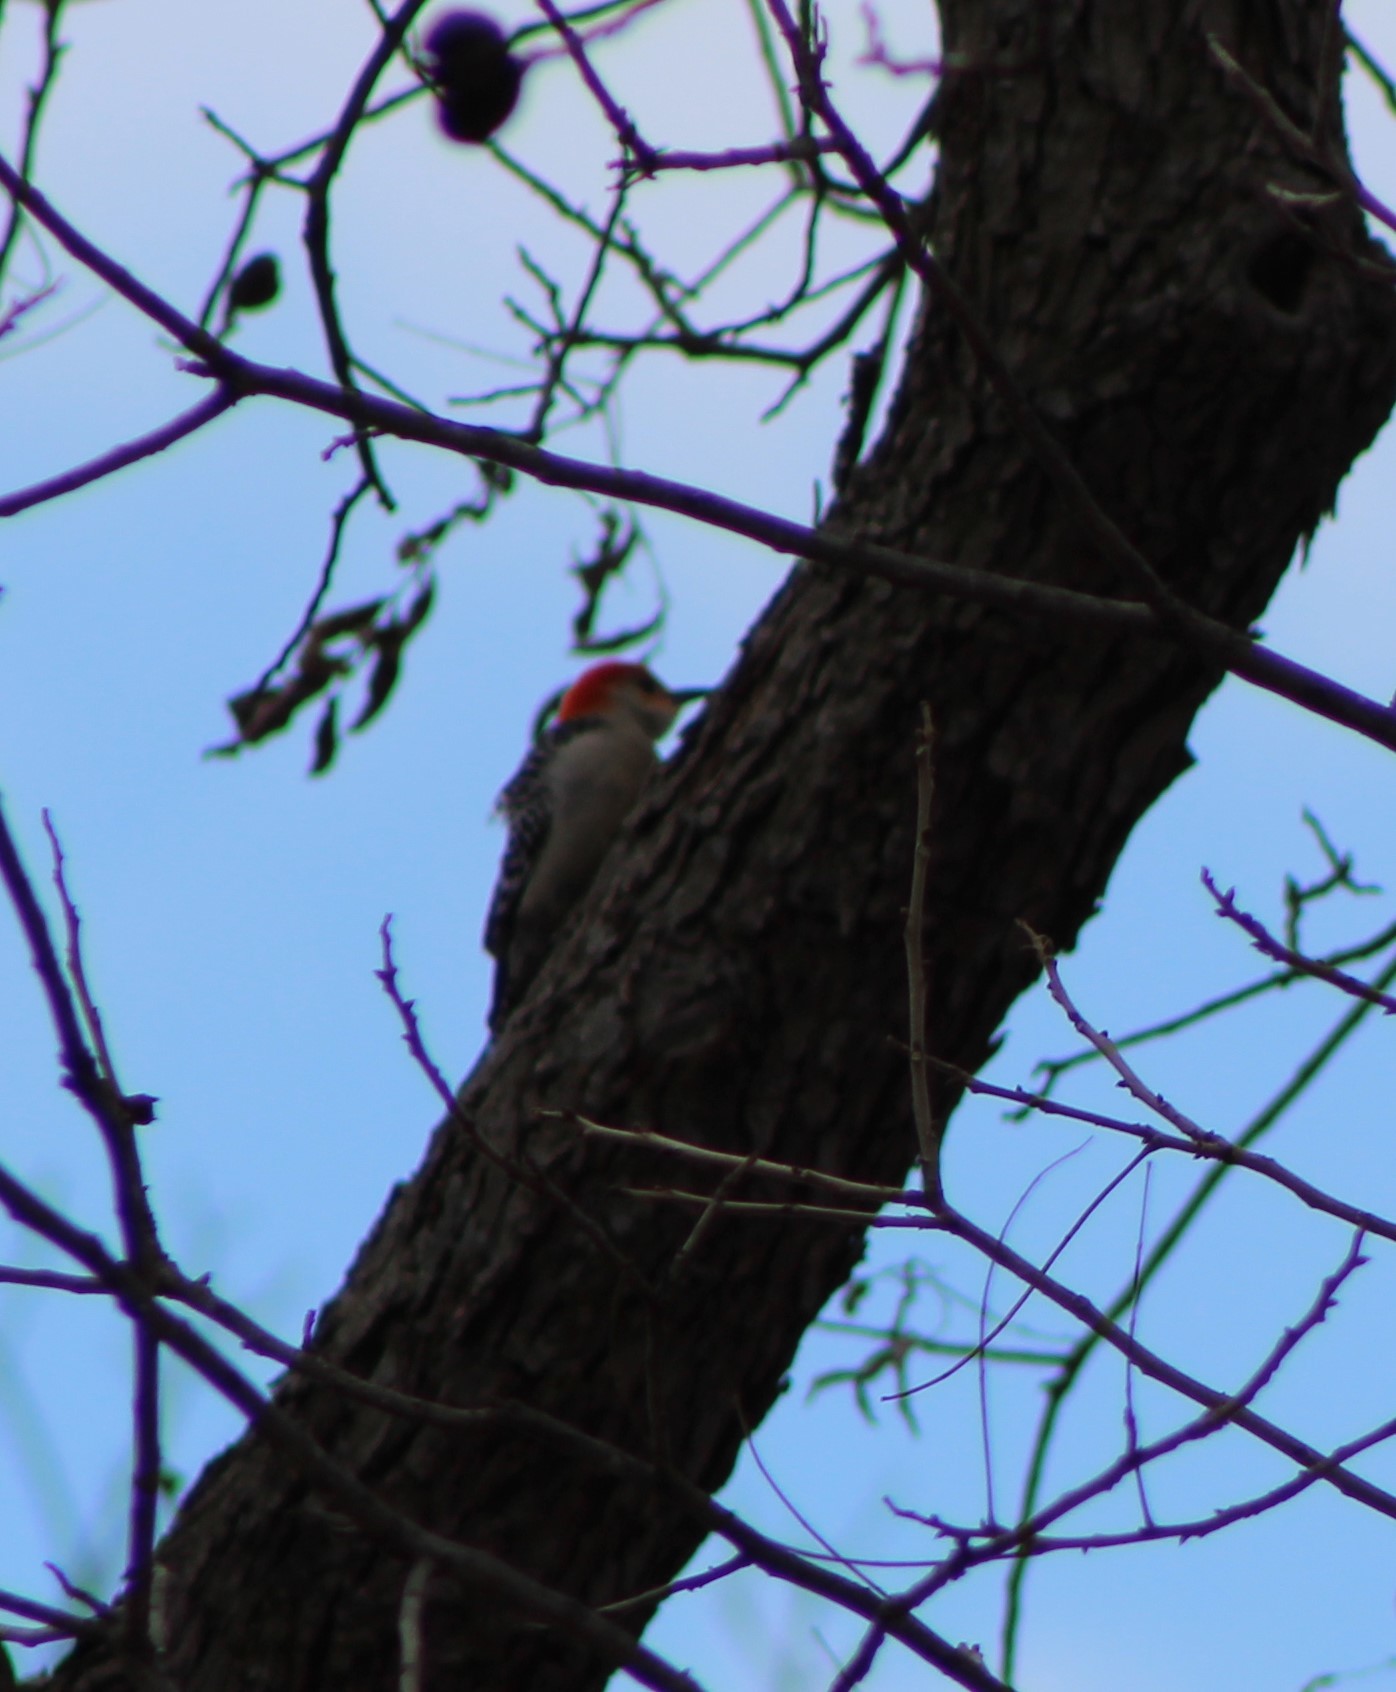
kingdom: Animalia
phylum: Chordata
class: Aves
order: Piciformes
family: Picidae
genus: Melanerpes
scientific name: Melanerpes carolinus
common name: Red-bellied woodpecker
